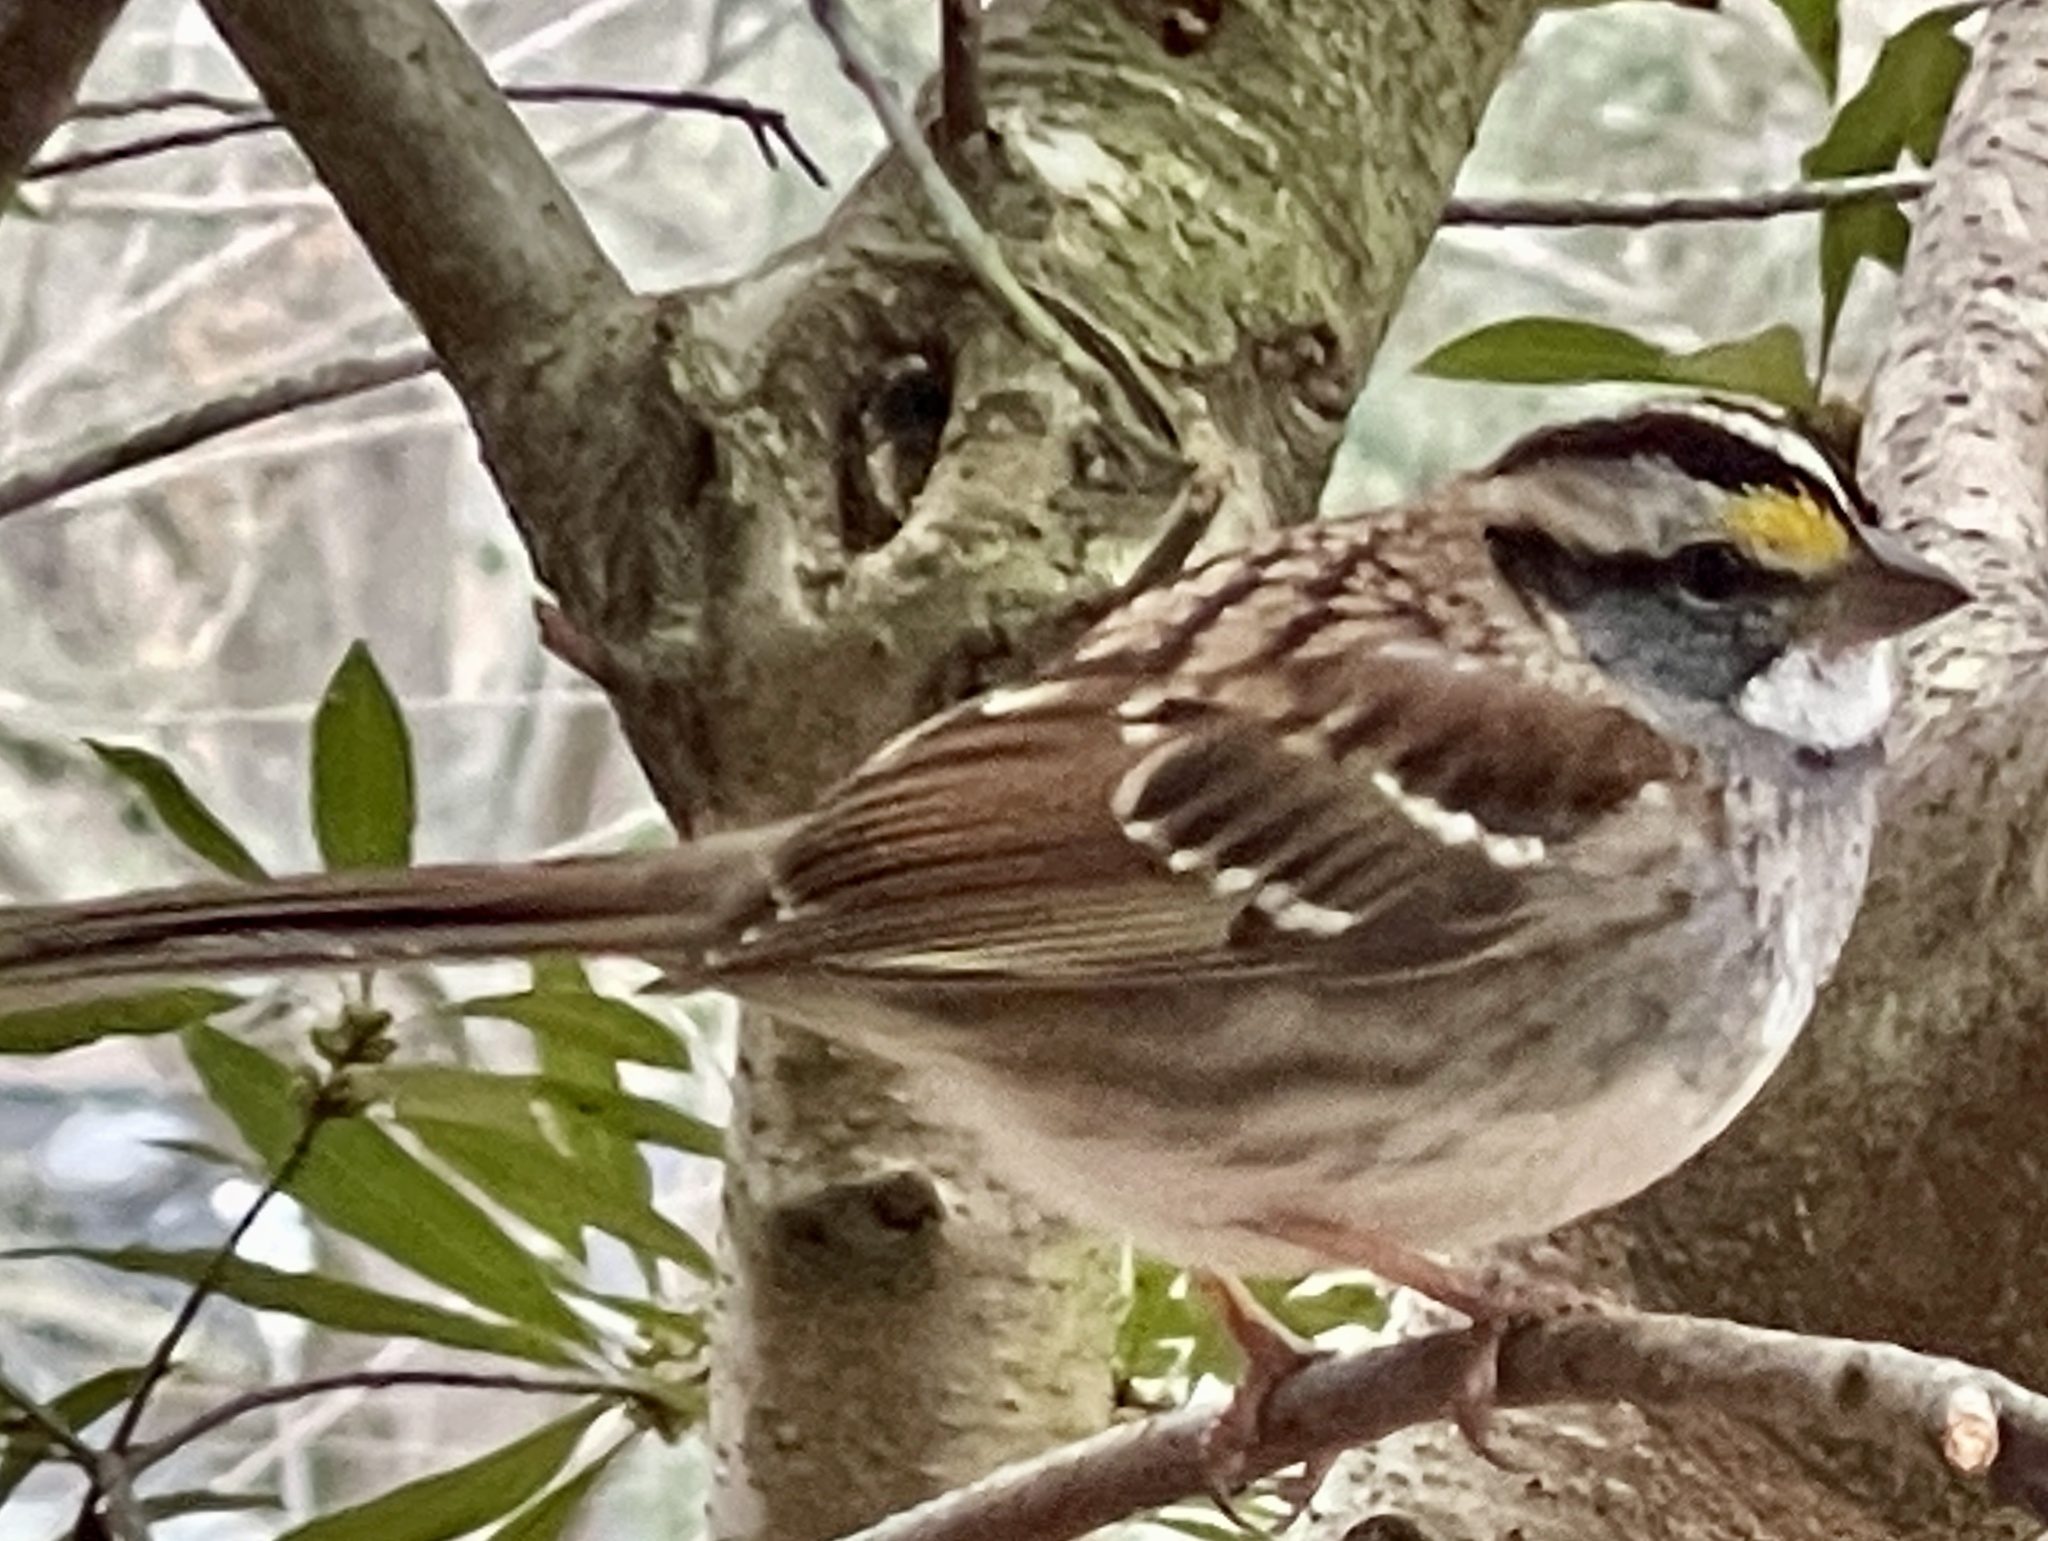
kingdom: Animalia
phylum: Chordata
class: Aves
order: Passeriformes
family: Passerellidae
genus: Zonotrichia
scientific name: Zonotrichia albicollis
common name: White-throated sparrow
